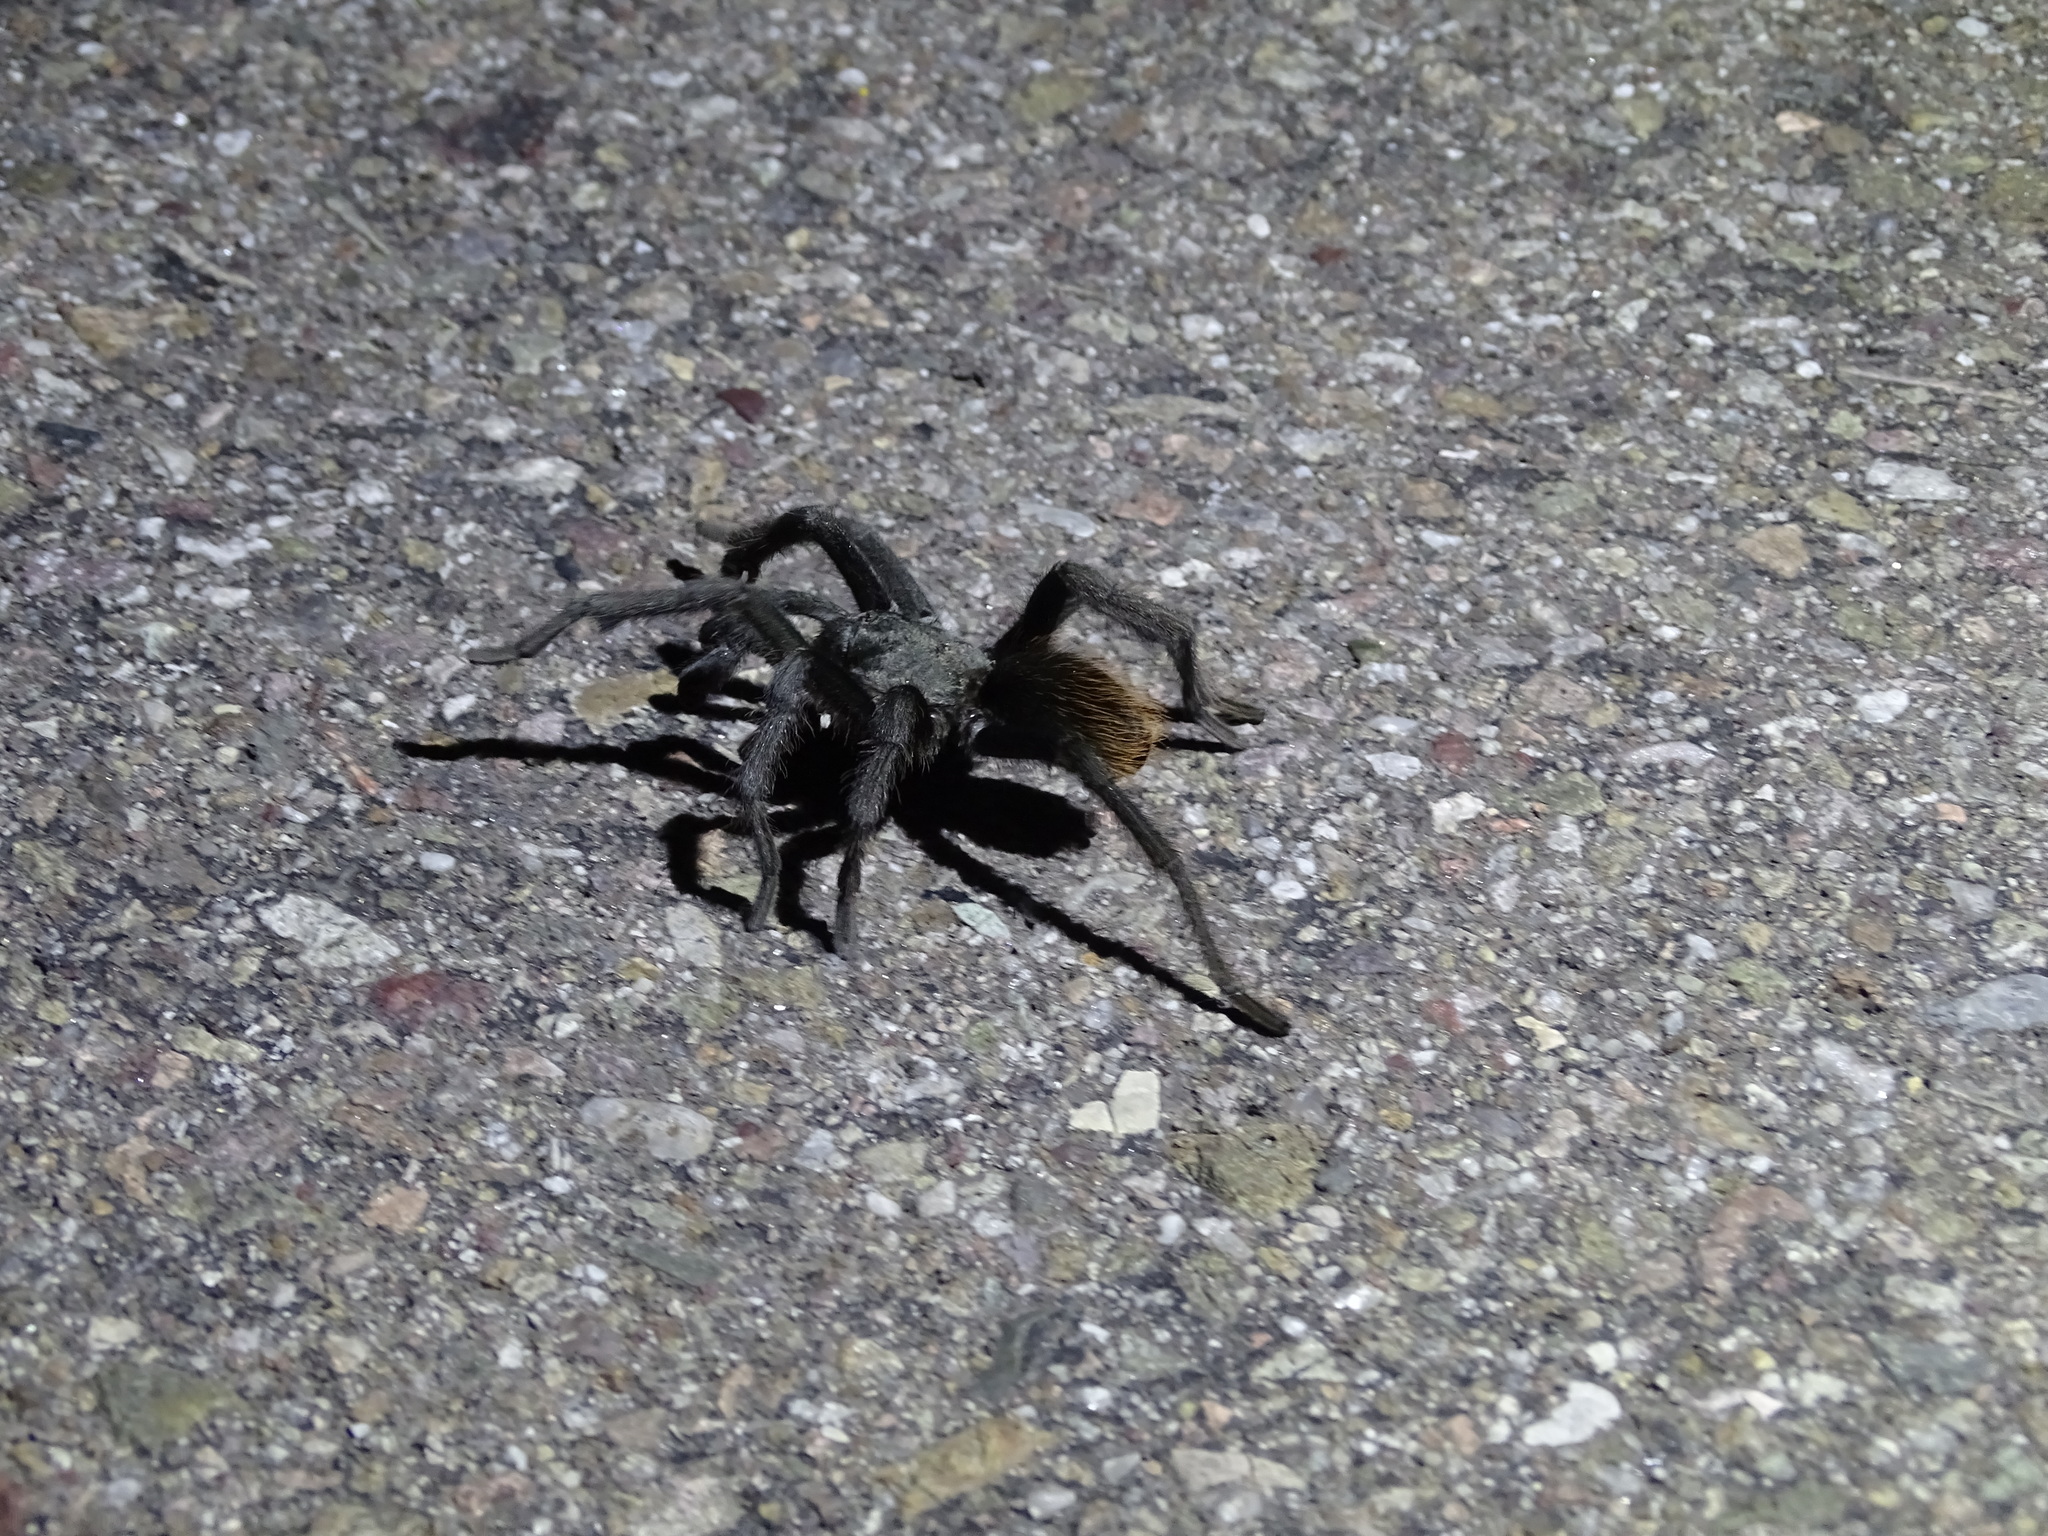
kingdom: Animalia
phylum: Arthropoda
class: Arachnida
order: Araneae
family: Theraphosidae
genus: Aphonopelma
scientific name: Aphonopelma vorhiesi
